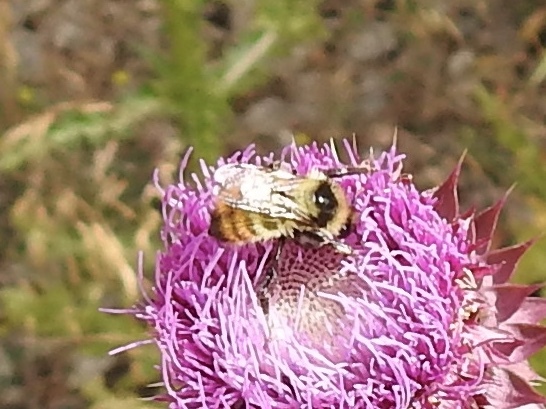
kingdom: Animalia
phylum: Arthropoda
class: Insecta
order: Hymenoptera
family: Apidae
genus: Bombus
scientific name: Bombus centralis
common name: Central bumble bee
